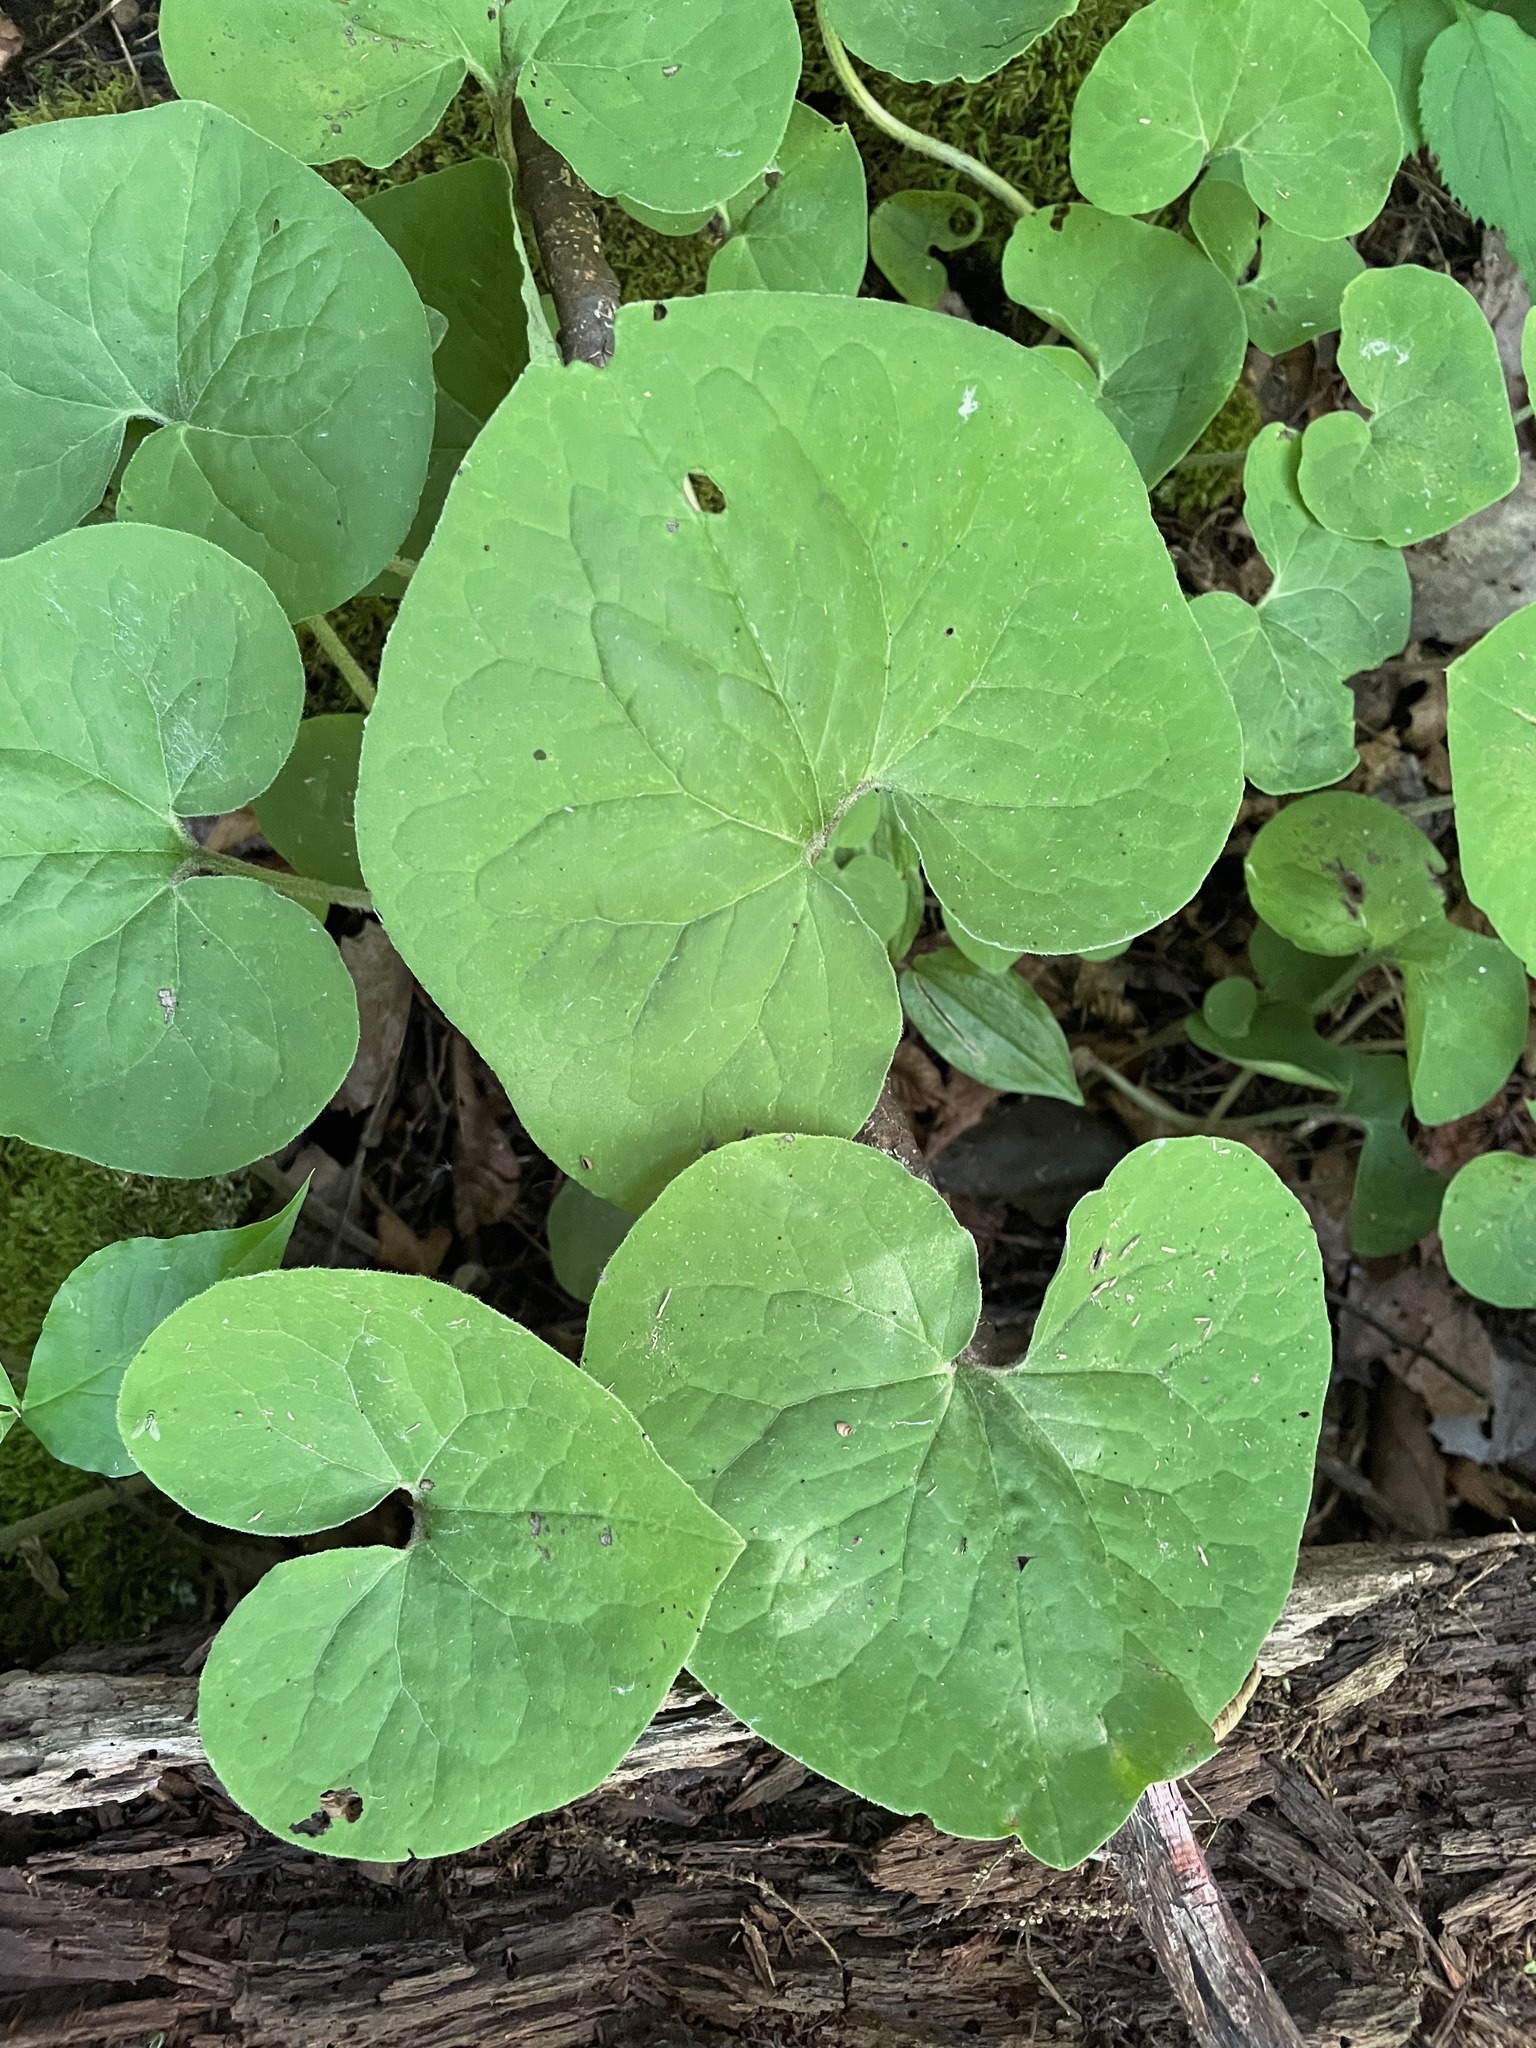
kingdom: Plantae
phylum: Tracheophyta
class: Magnoliopsida
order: Piperales
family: Aristolochiaceae
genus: Asarum
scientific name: Asarum canadense
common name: Wild ginger
